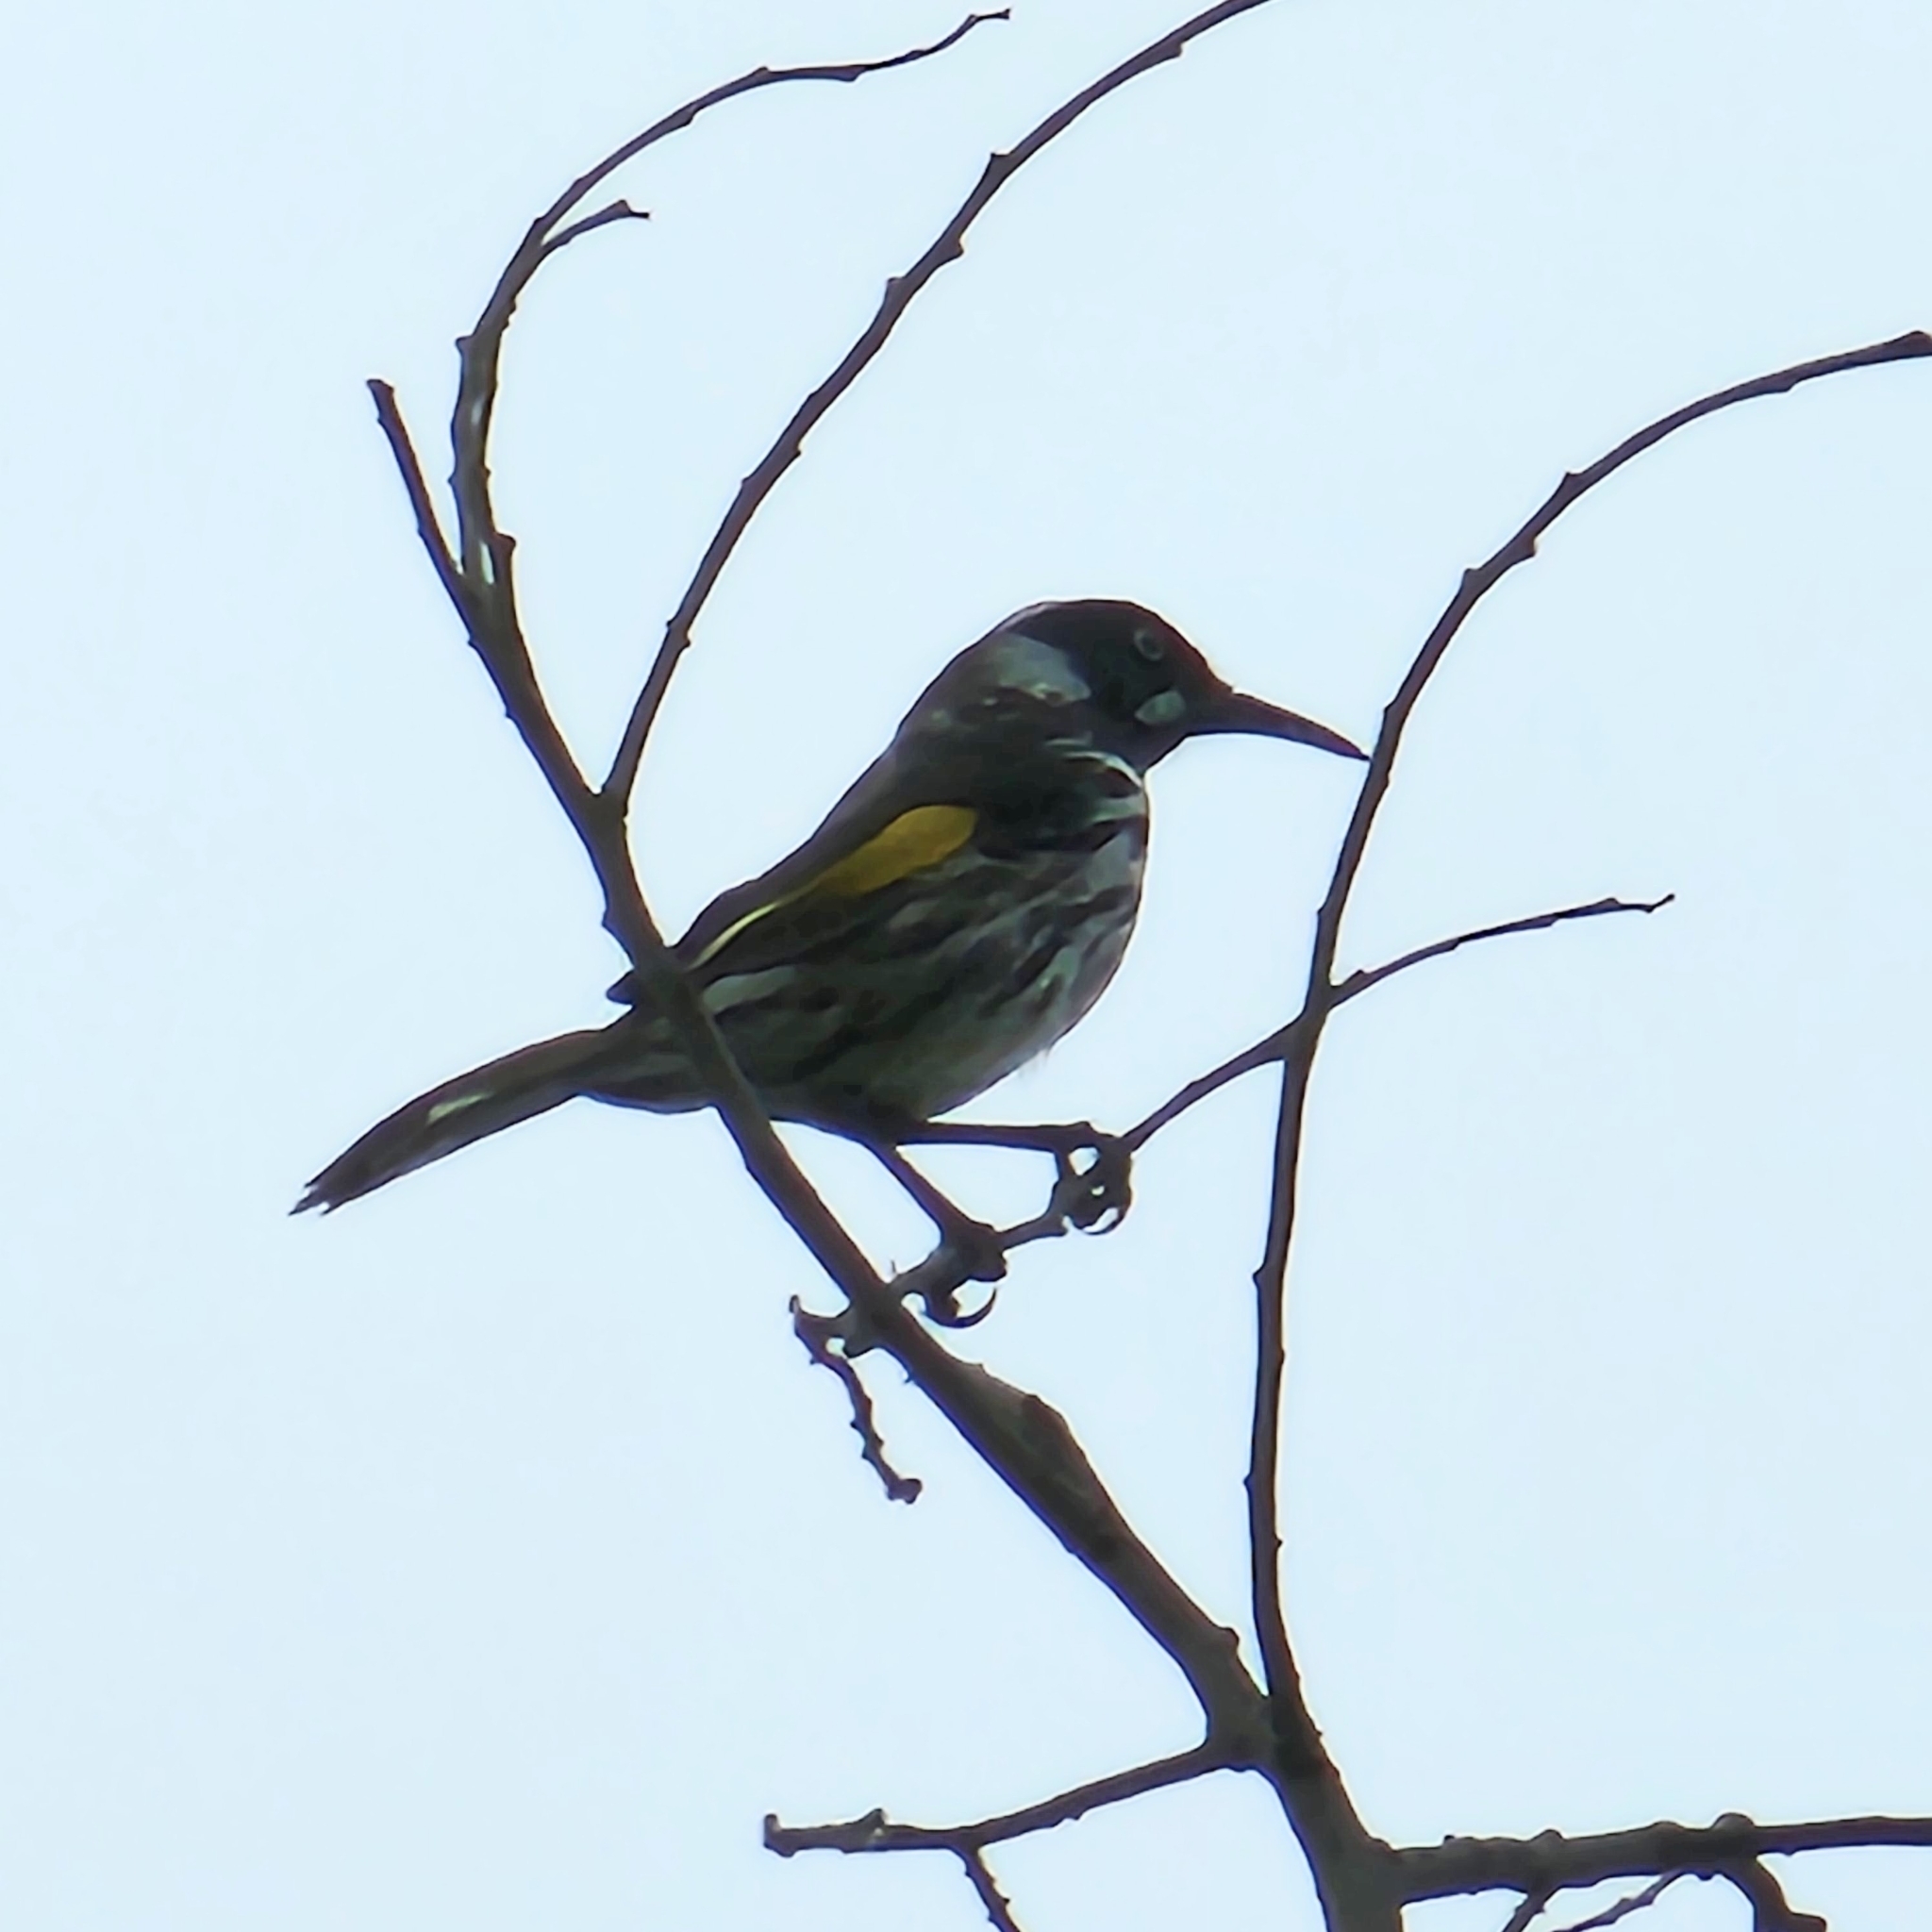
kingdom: Animalia
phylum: Chordata
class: Aves
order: Passeriformes
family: Meliphagidae
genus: Phylidonyris
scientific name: Phylidonyris novaehollandiae
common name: New holland honeyeater
